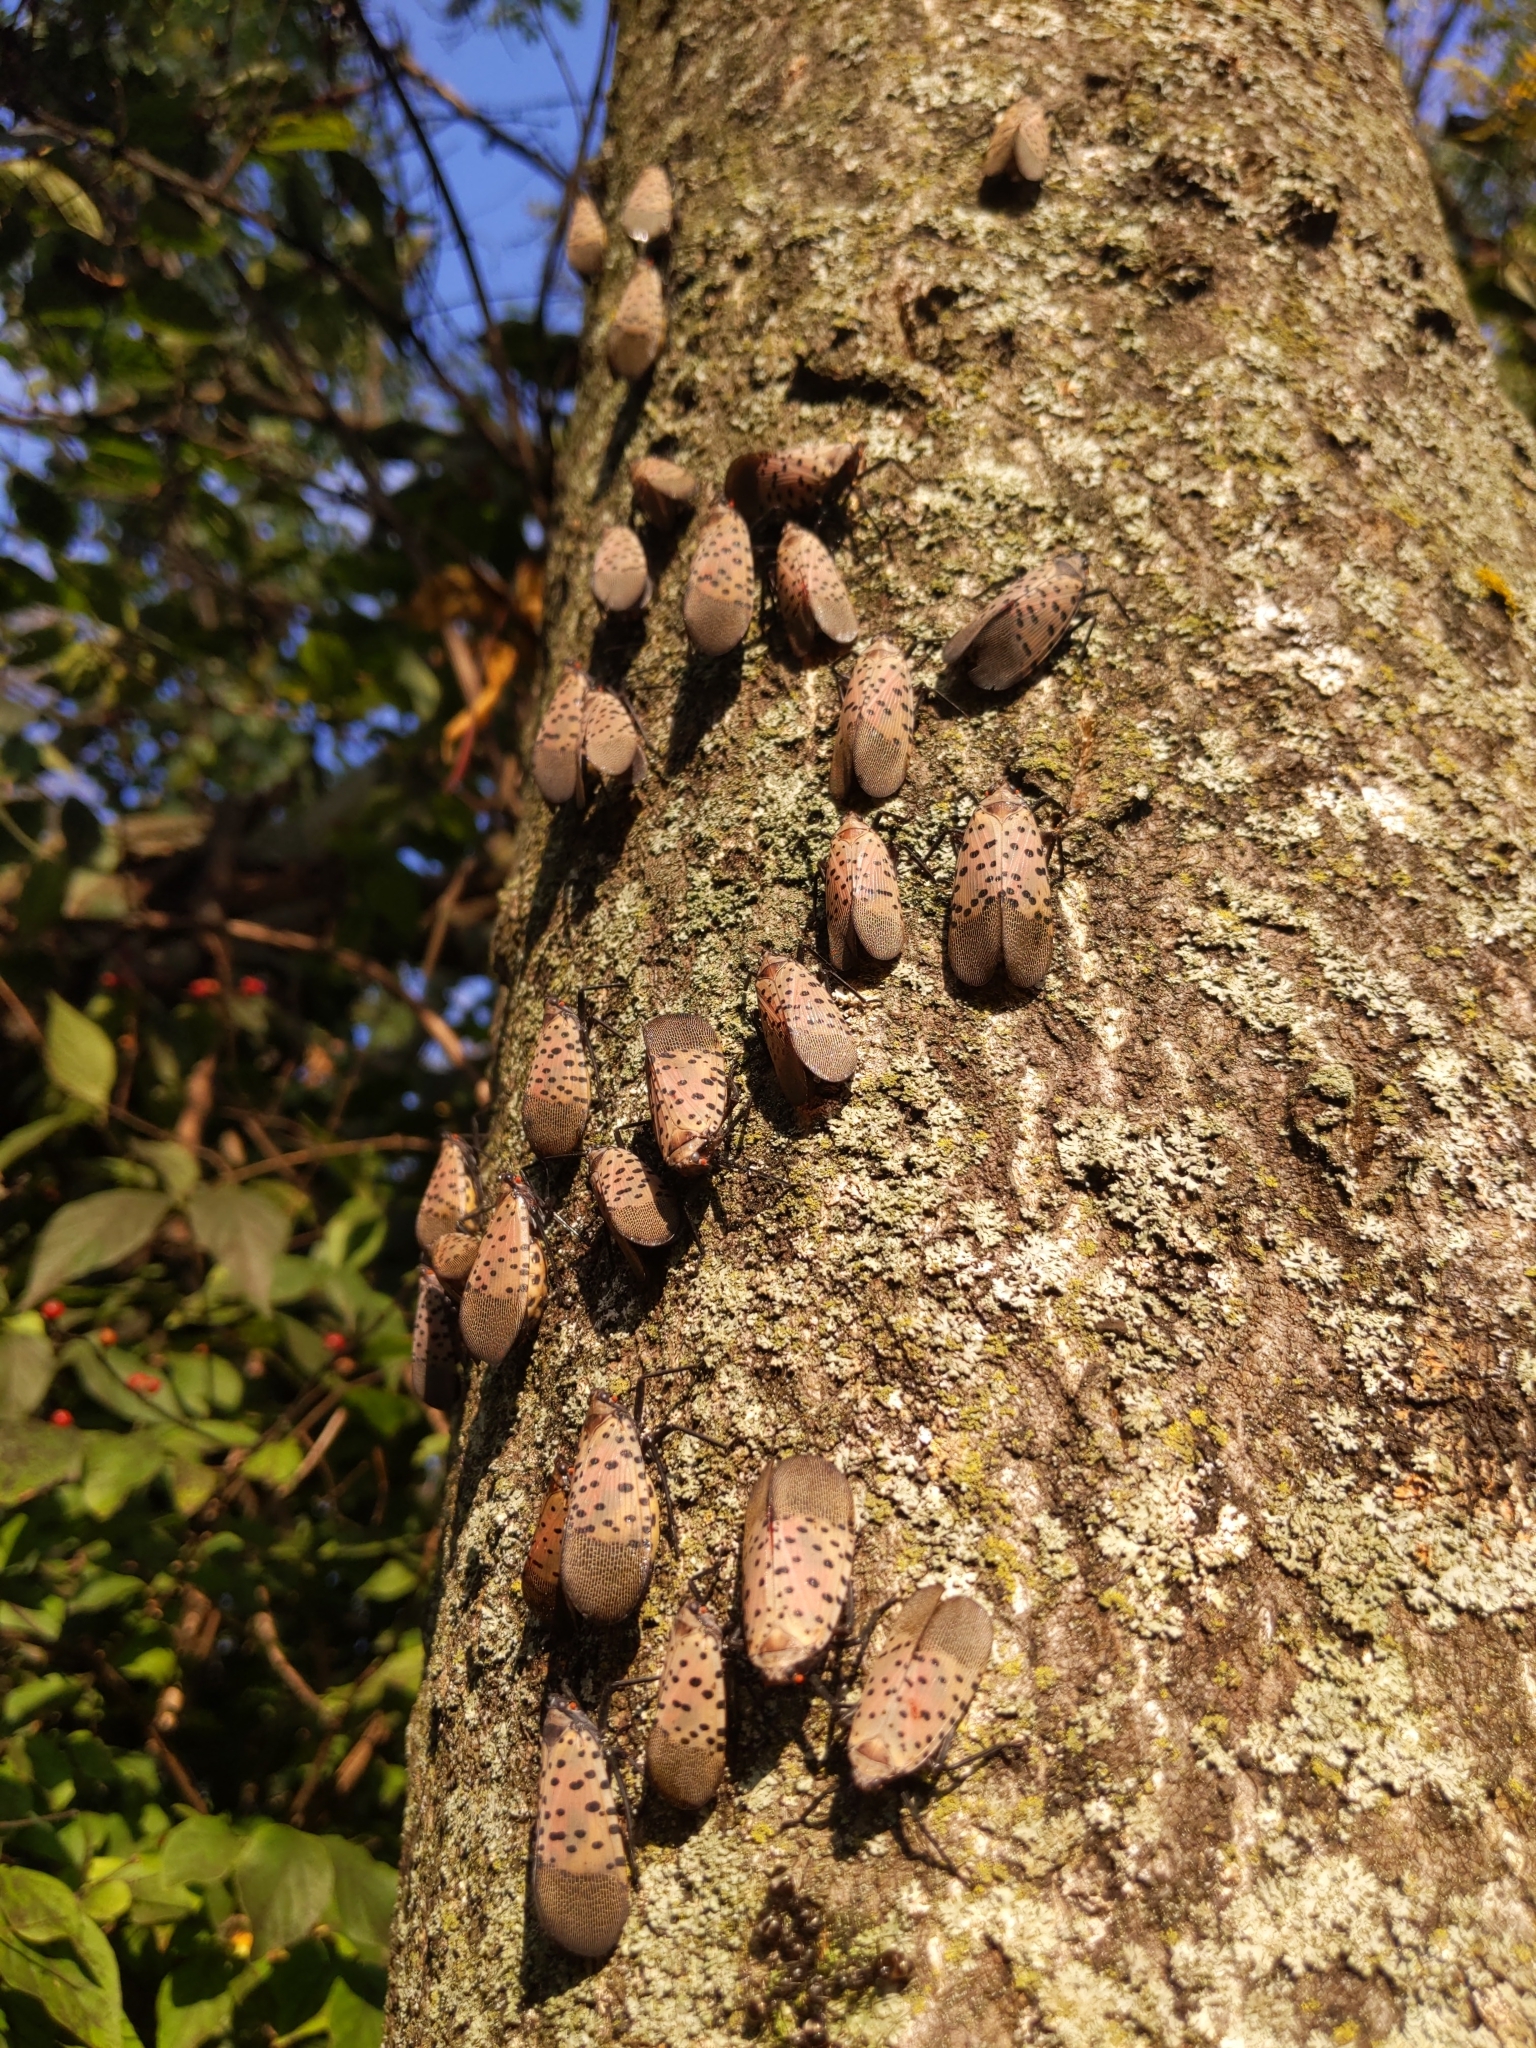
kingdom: Animalia
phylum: Arthropoda
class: Insecta
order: Hemiptera
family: Fulgoridae
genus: Lycorma
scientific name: Lycorma delicatula
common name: Spotted lanternfly
